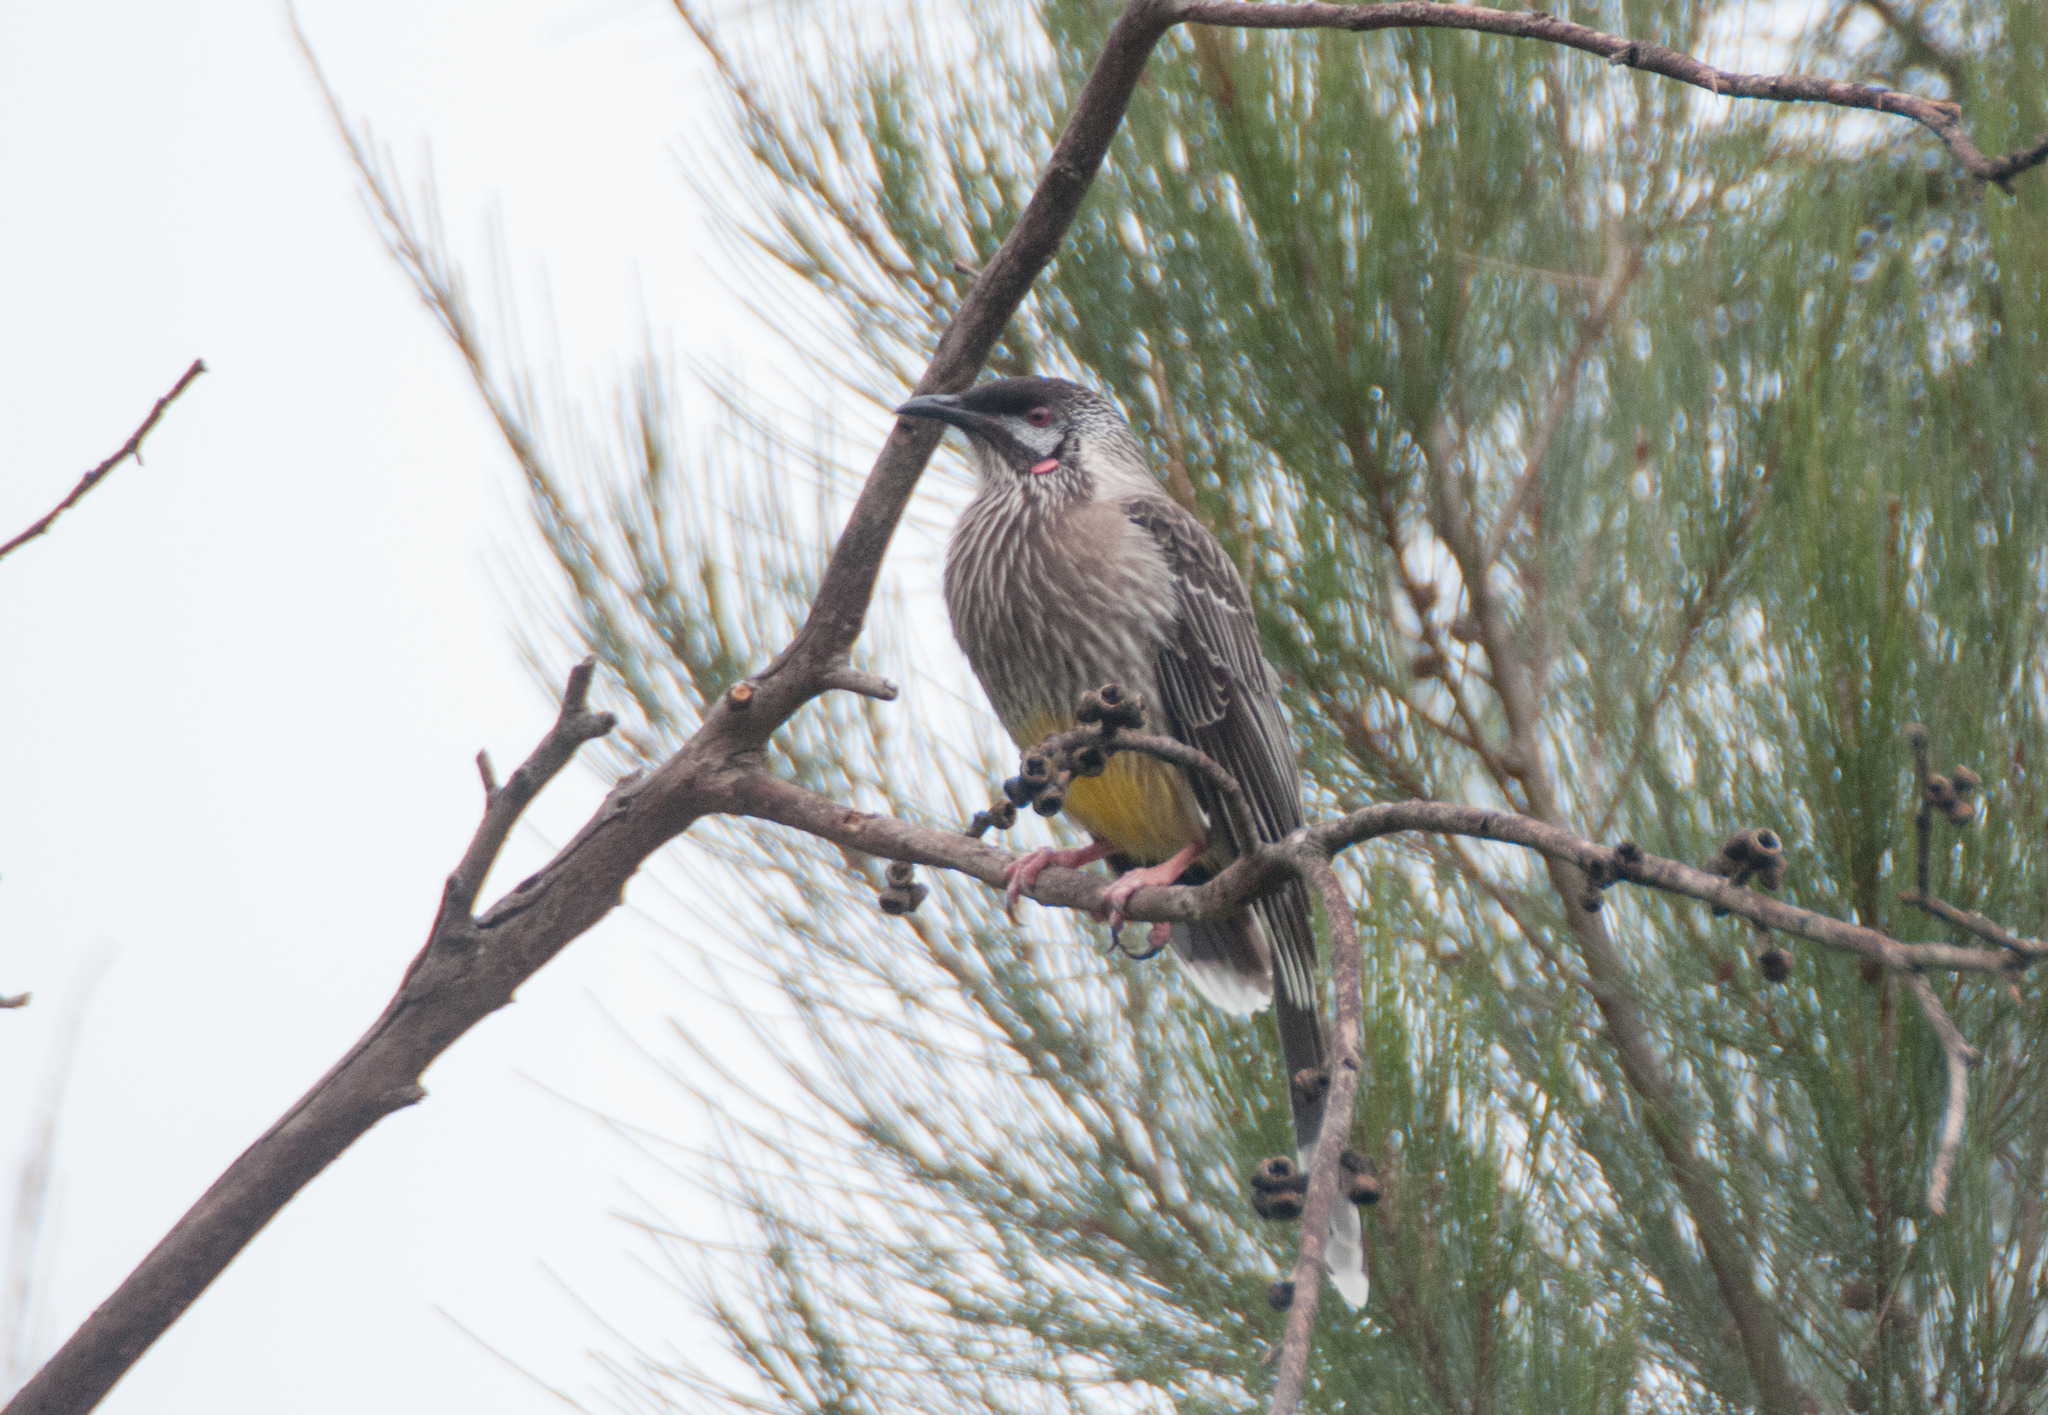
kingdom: Animalia
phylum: Chordata
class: Aves
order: Passeriformes
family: Meliphagidae
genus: Anthochaera
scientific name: Anthochaera carunculata
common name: Red wattlebird
